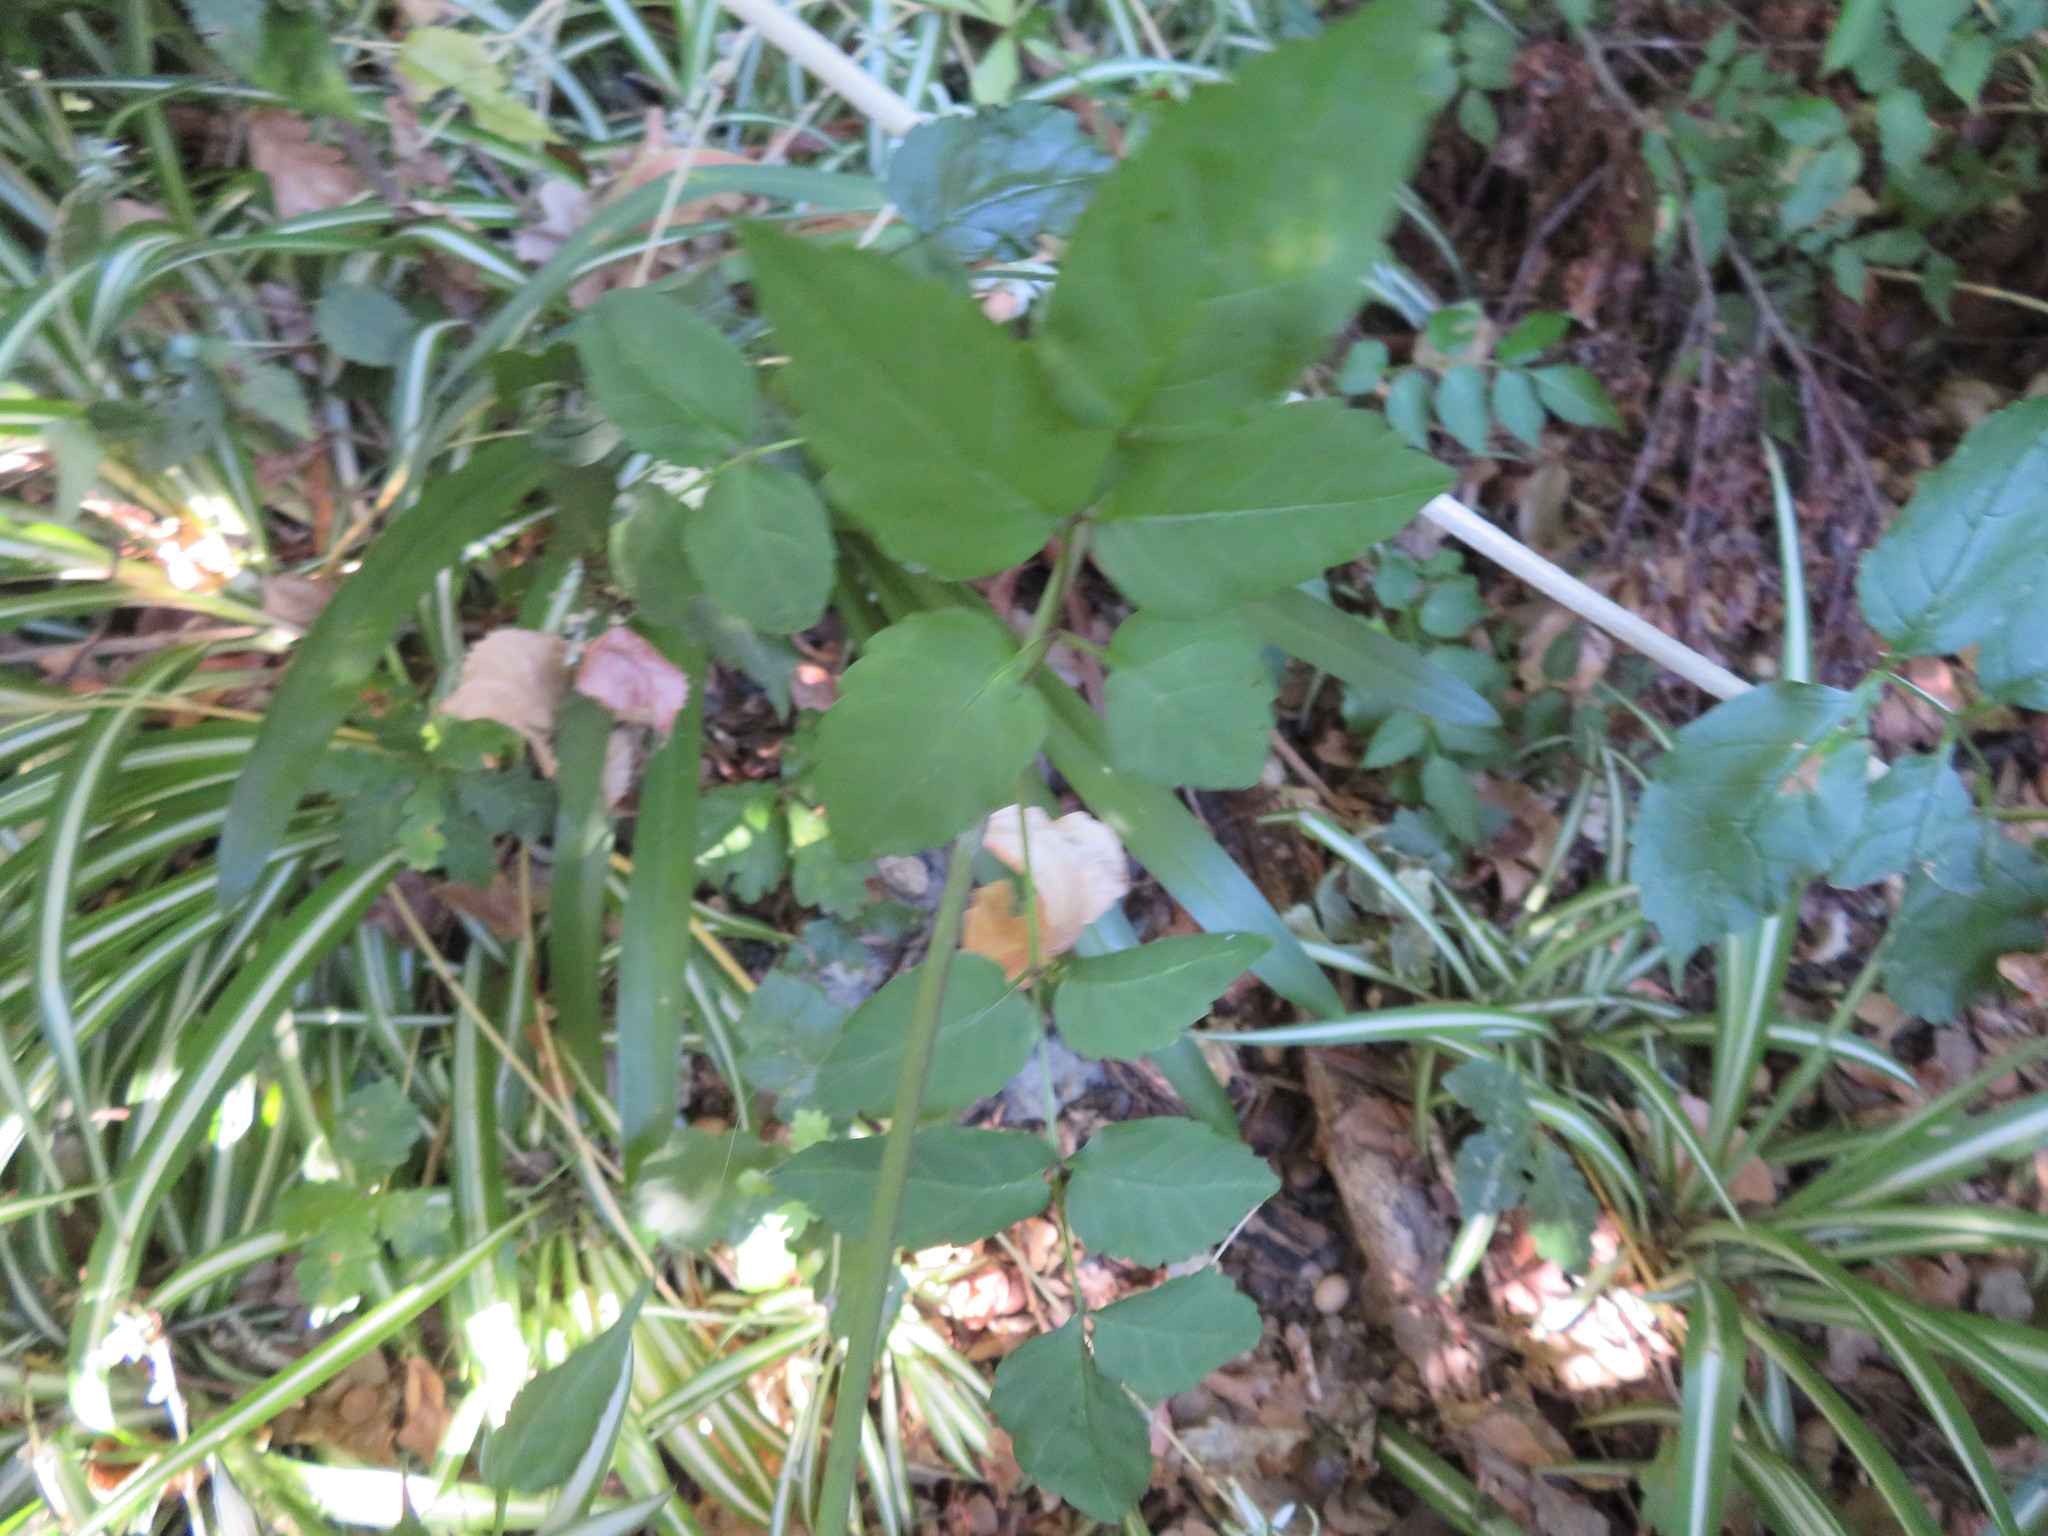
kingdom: Plantae
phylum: Tracheophyta
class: Liliopsida
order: Asparagales
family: Asparagaceae
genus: Chlorophytum
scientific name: Chlorophytum comosum
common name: Spider plant
